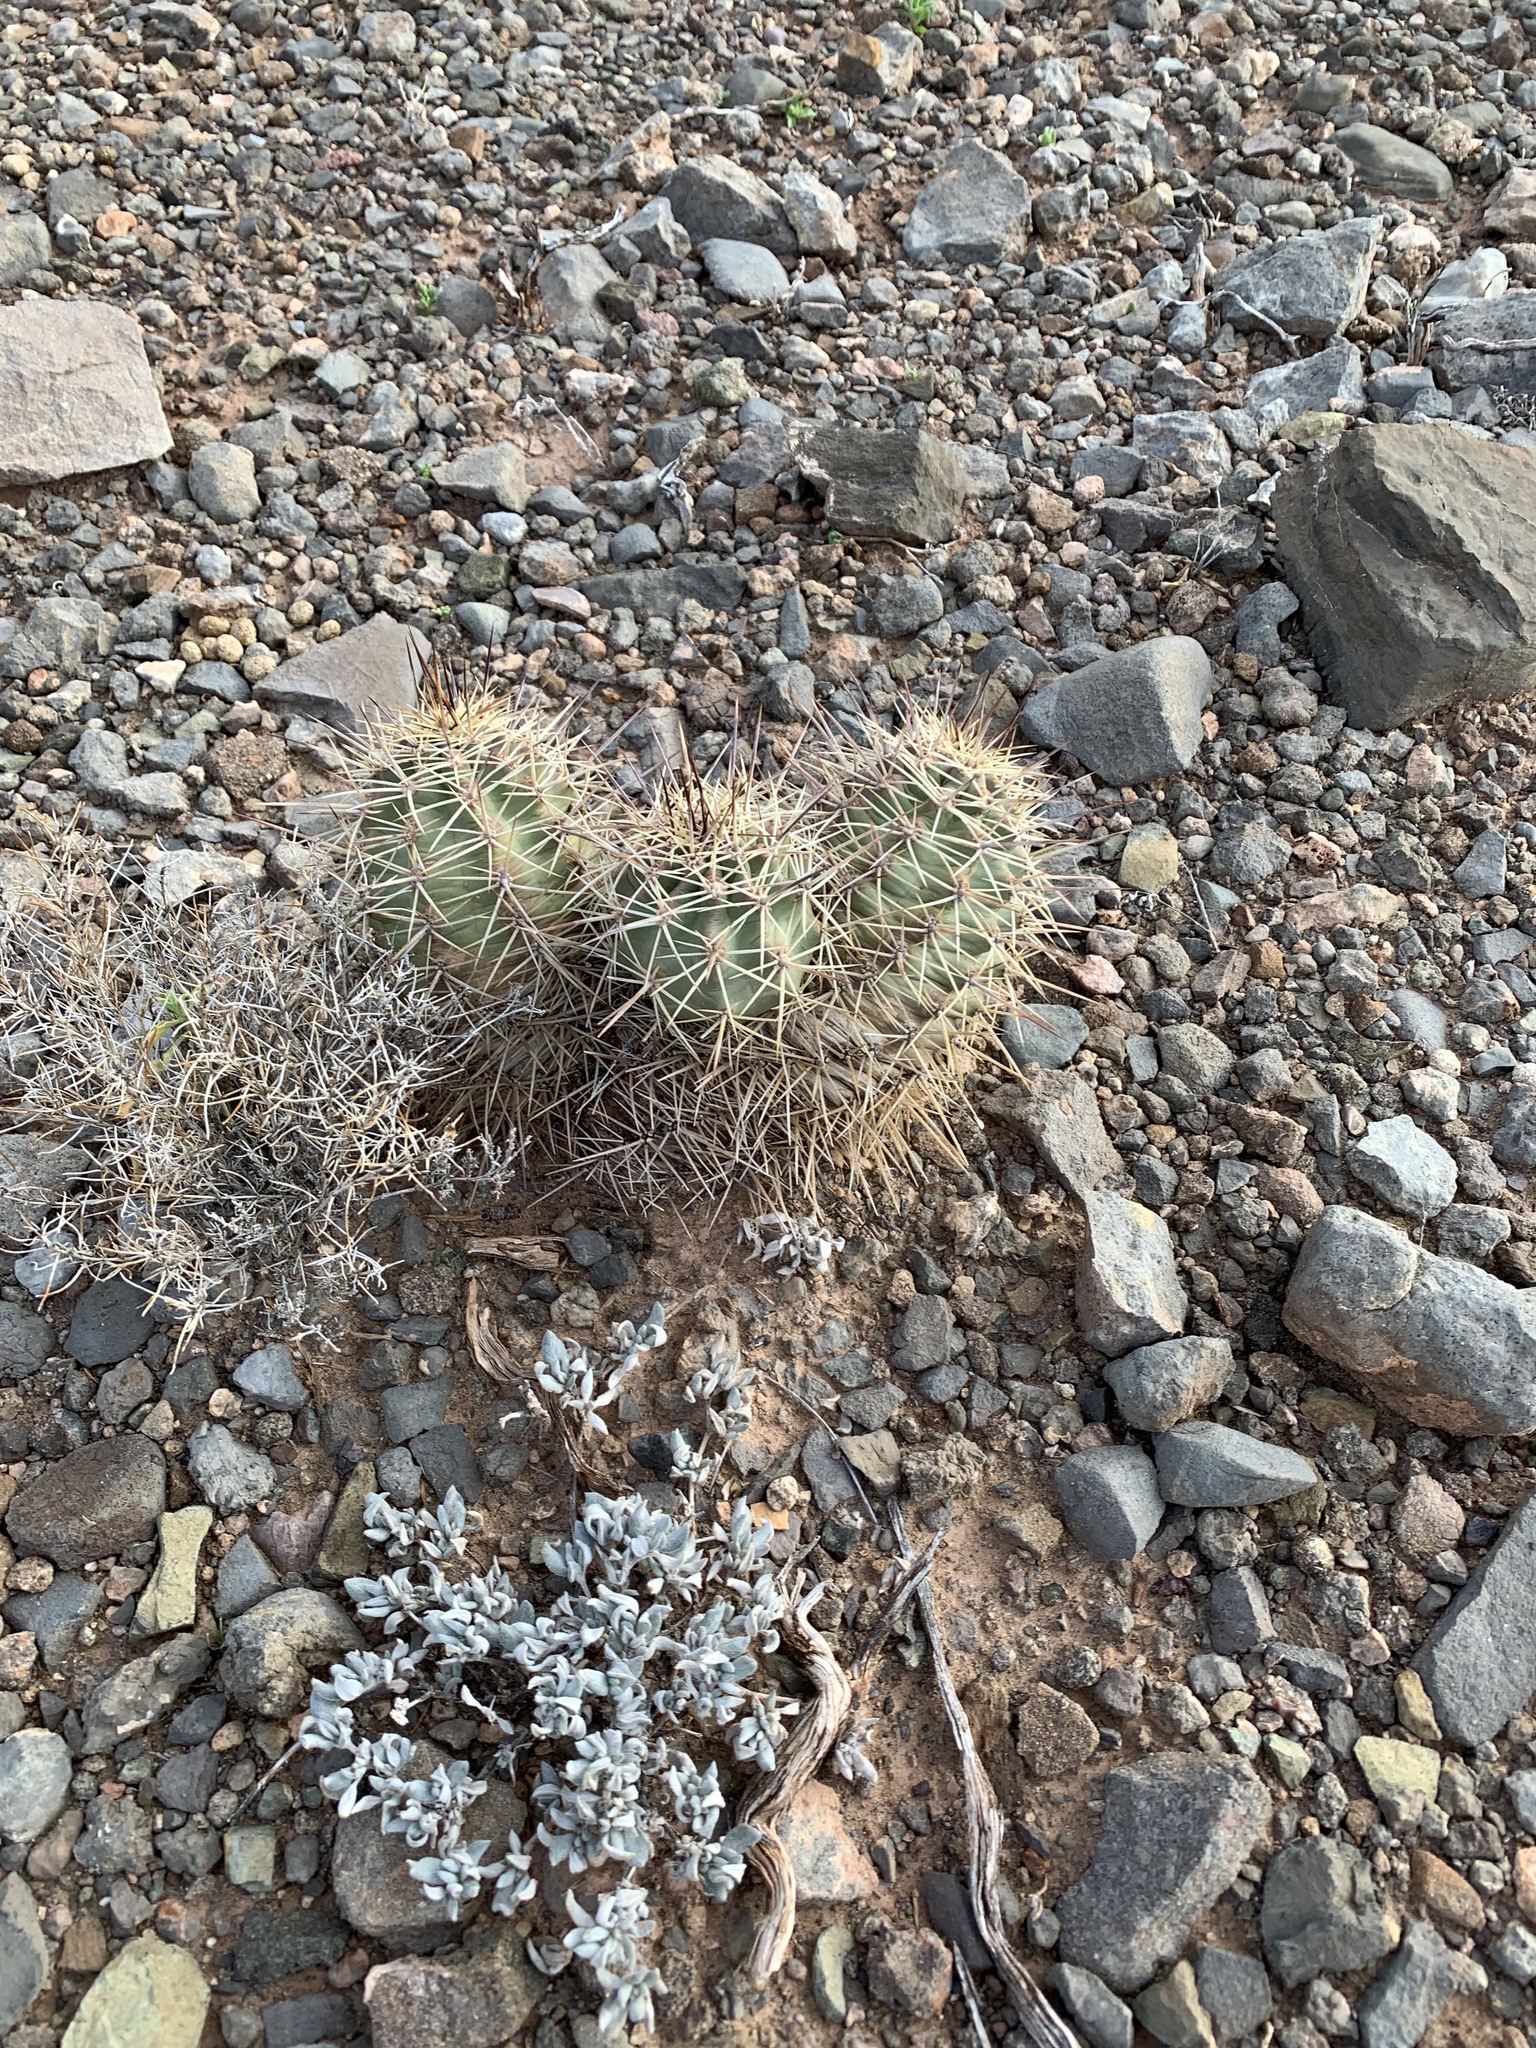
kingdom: Plantae
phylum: Tracheophyta
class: Magnoliopsida
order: Caryophyllales
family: Cactaceae
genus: Echinocereus
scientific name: Echinocereus coccineus
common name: Scarlet hedgehog cactus
